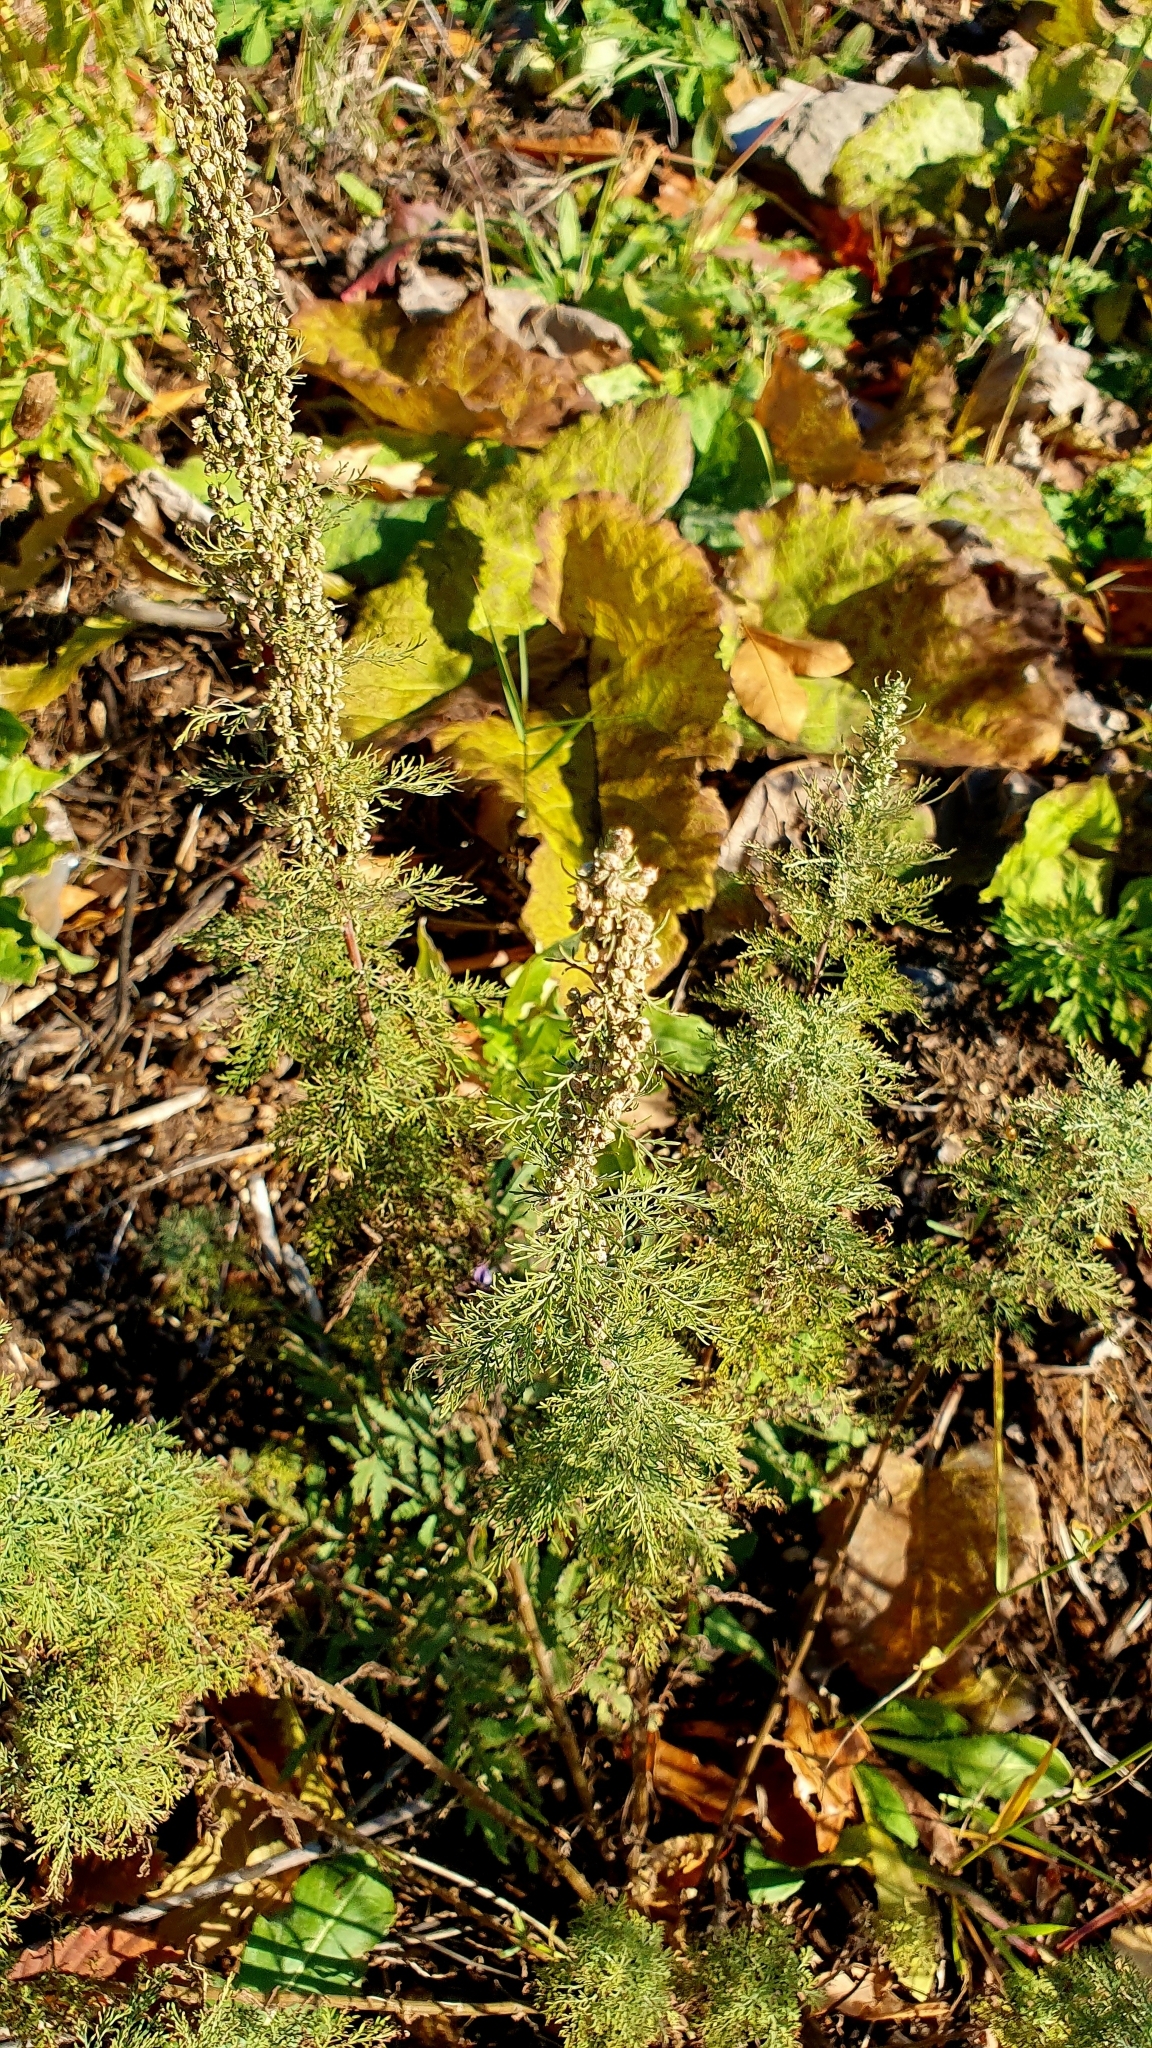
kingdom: Plantae
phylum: Tracheophyta
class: Magnoliopsida
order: Asterales
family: Asteraceae
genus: Artemisia
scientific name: Artemisia abrotanum
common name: Southernwood
